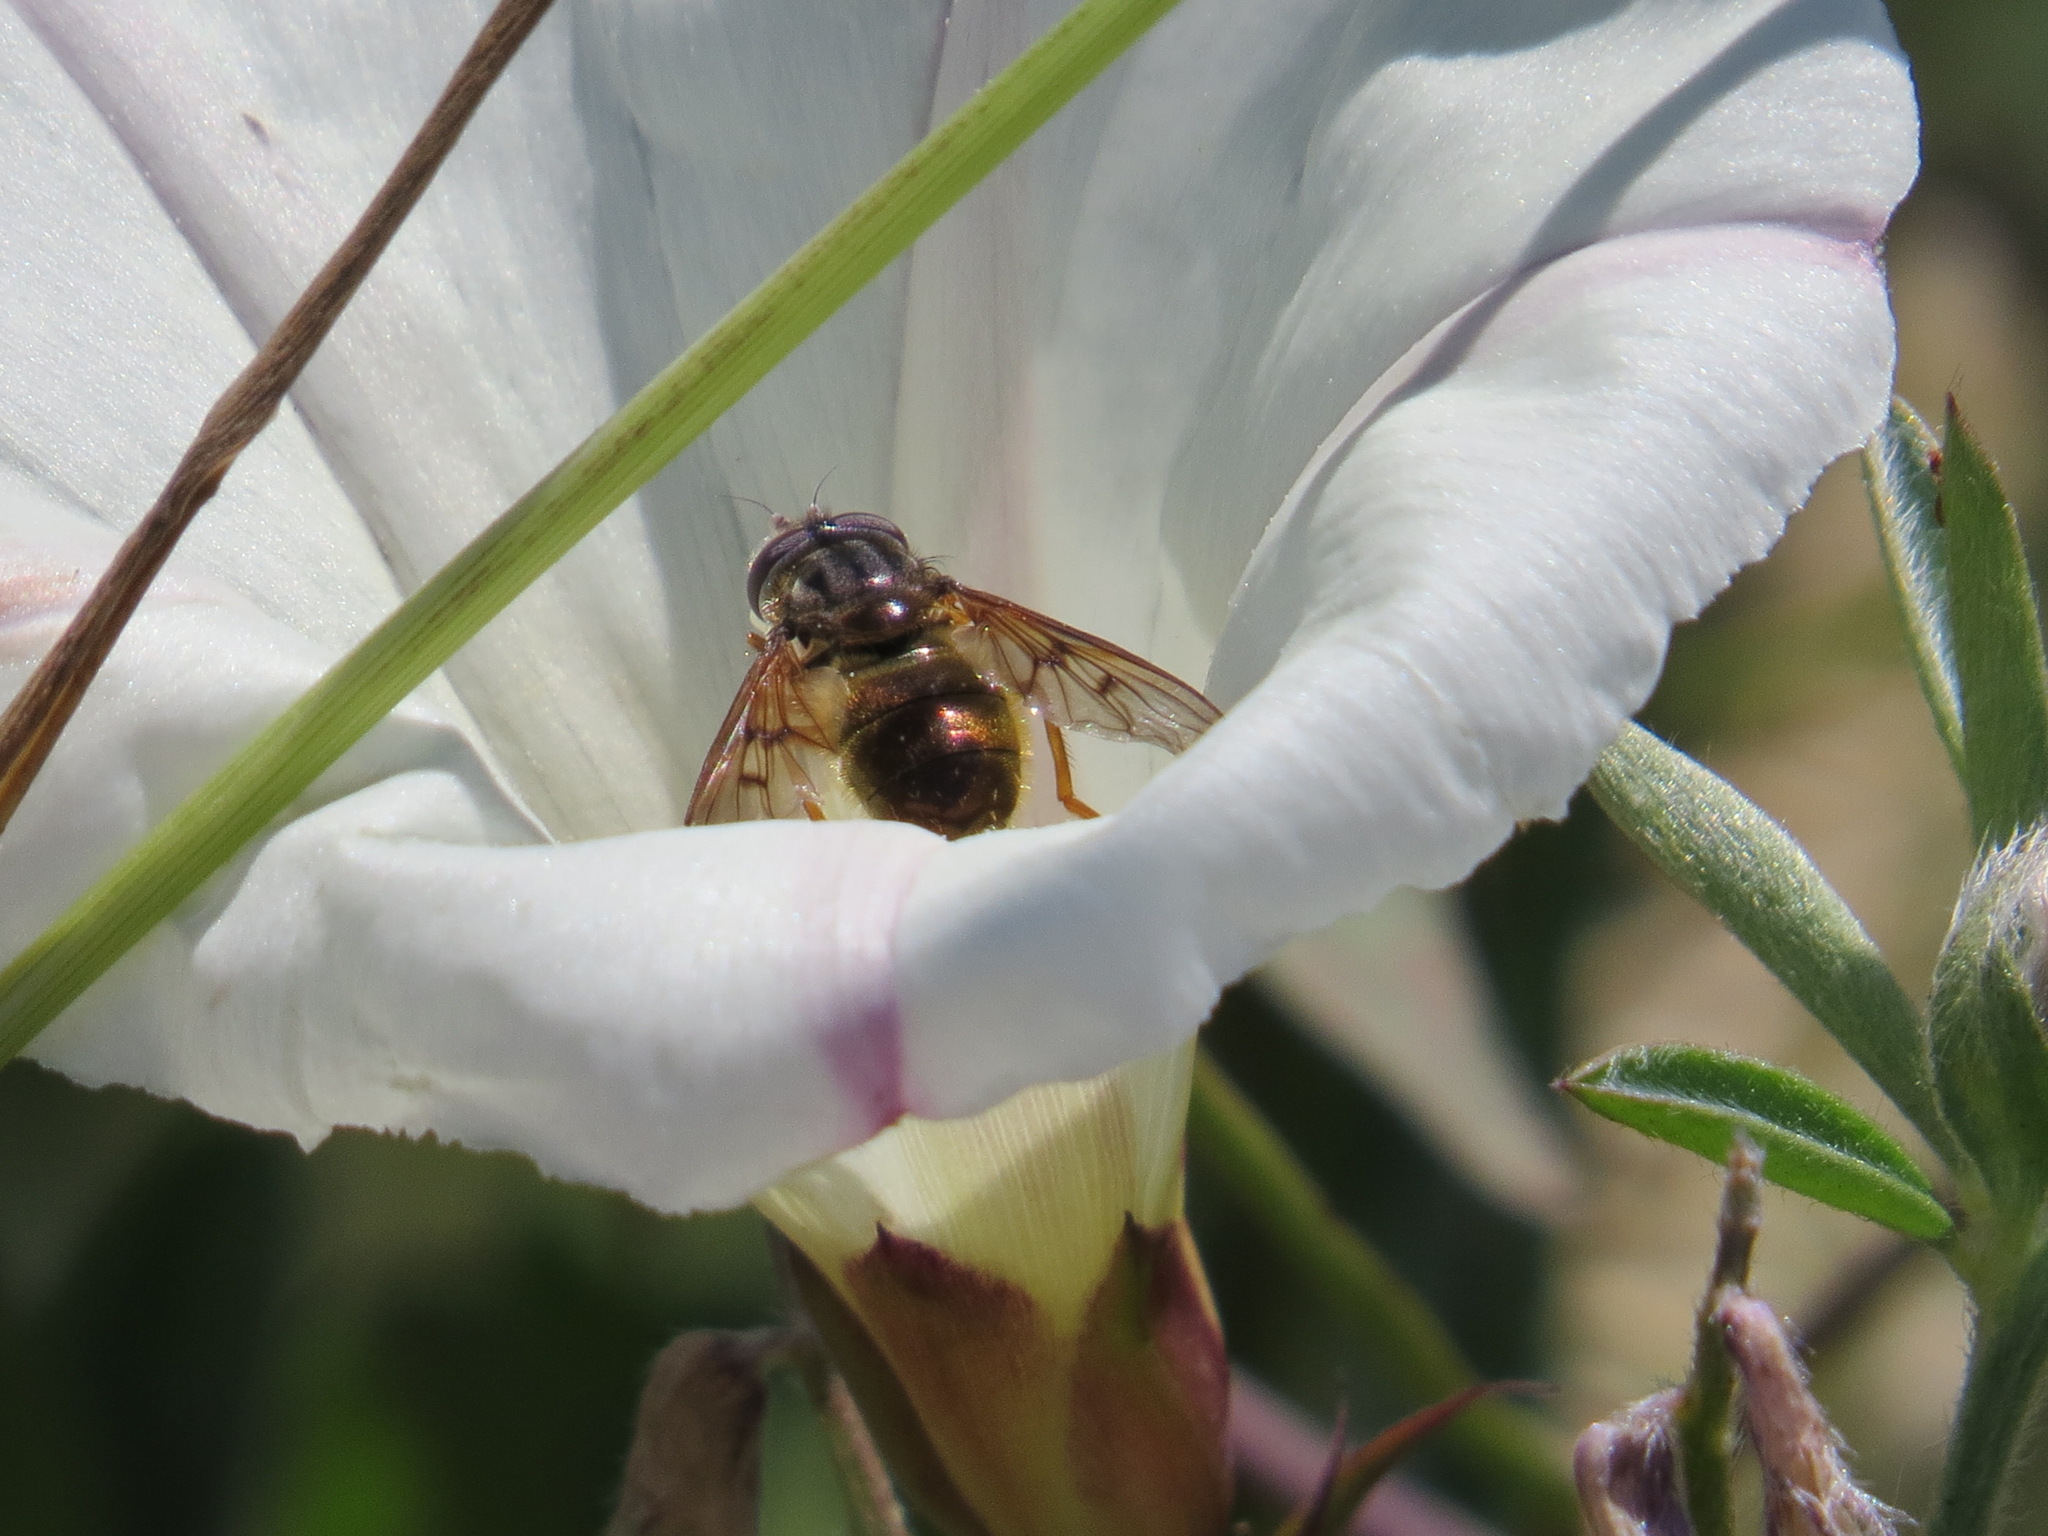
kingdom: Animalia
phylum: Arthropoda
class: Insecta
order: Diptera
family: Syrphidae
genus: Ferdinandea
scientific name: Ferdinandea croesus
